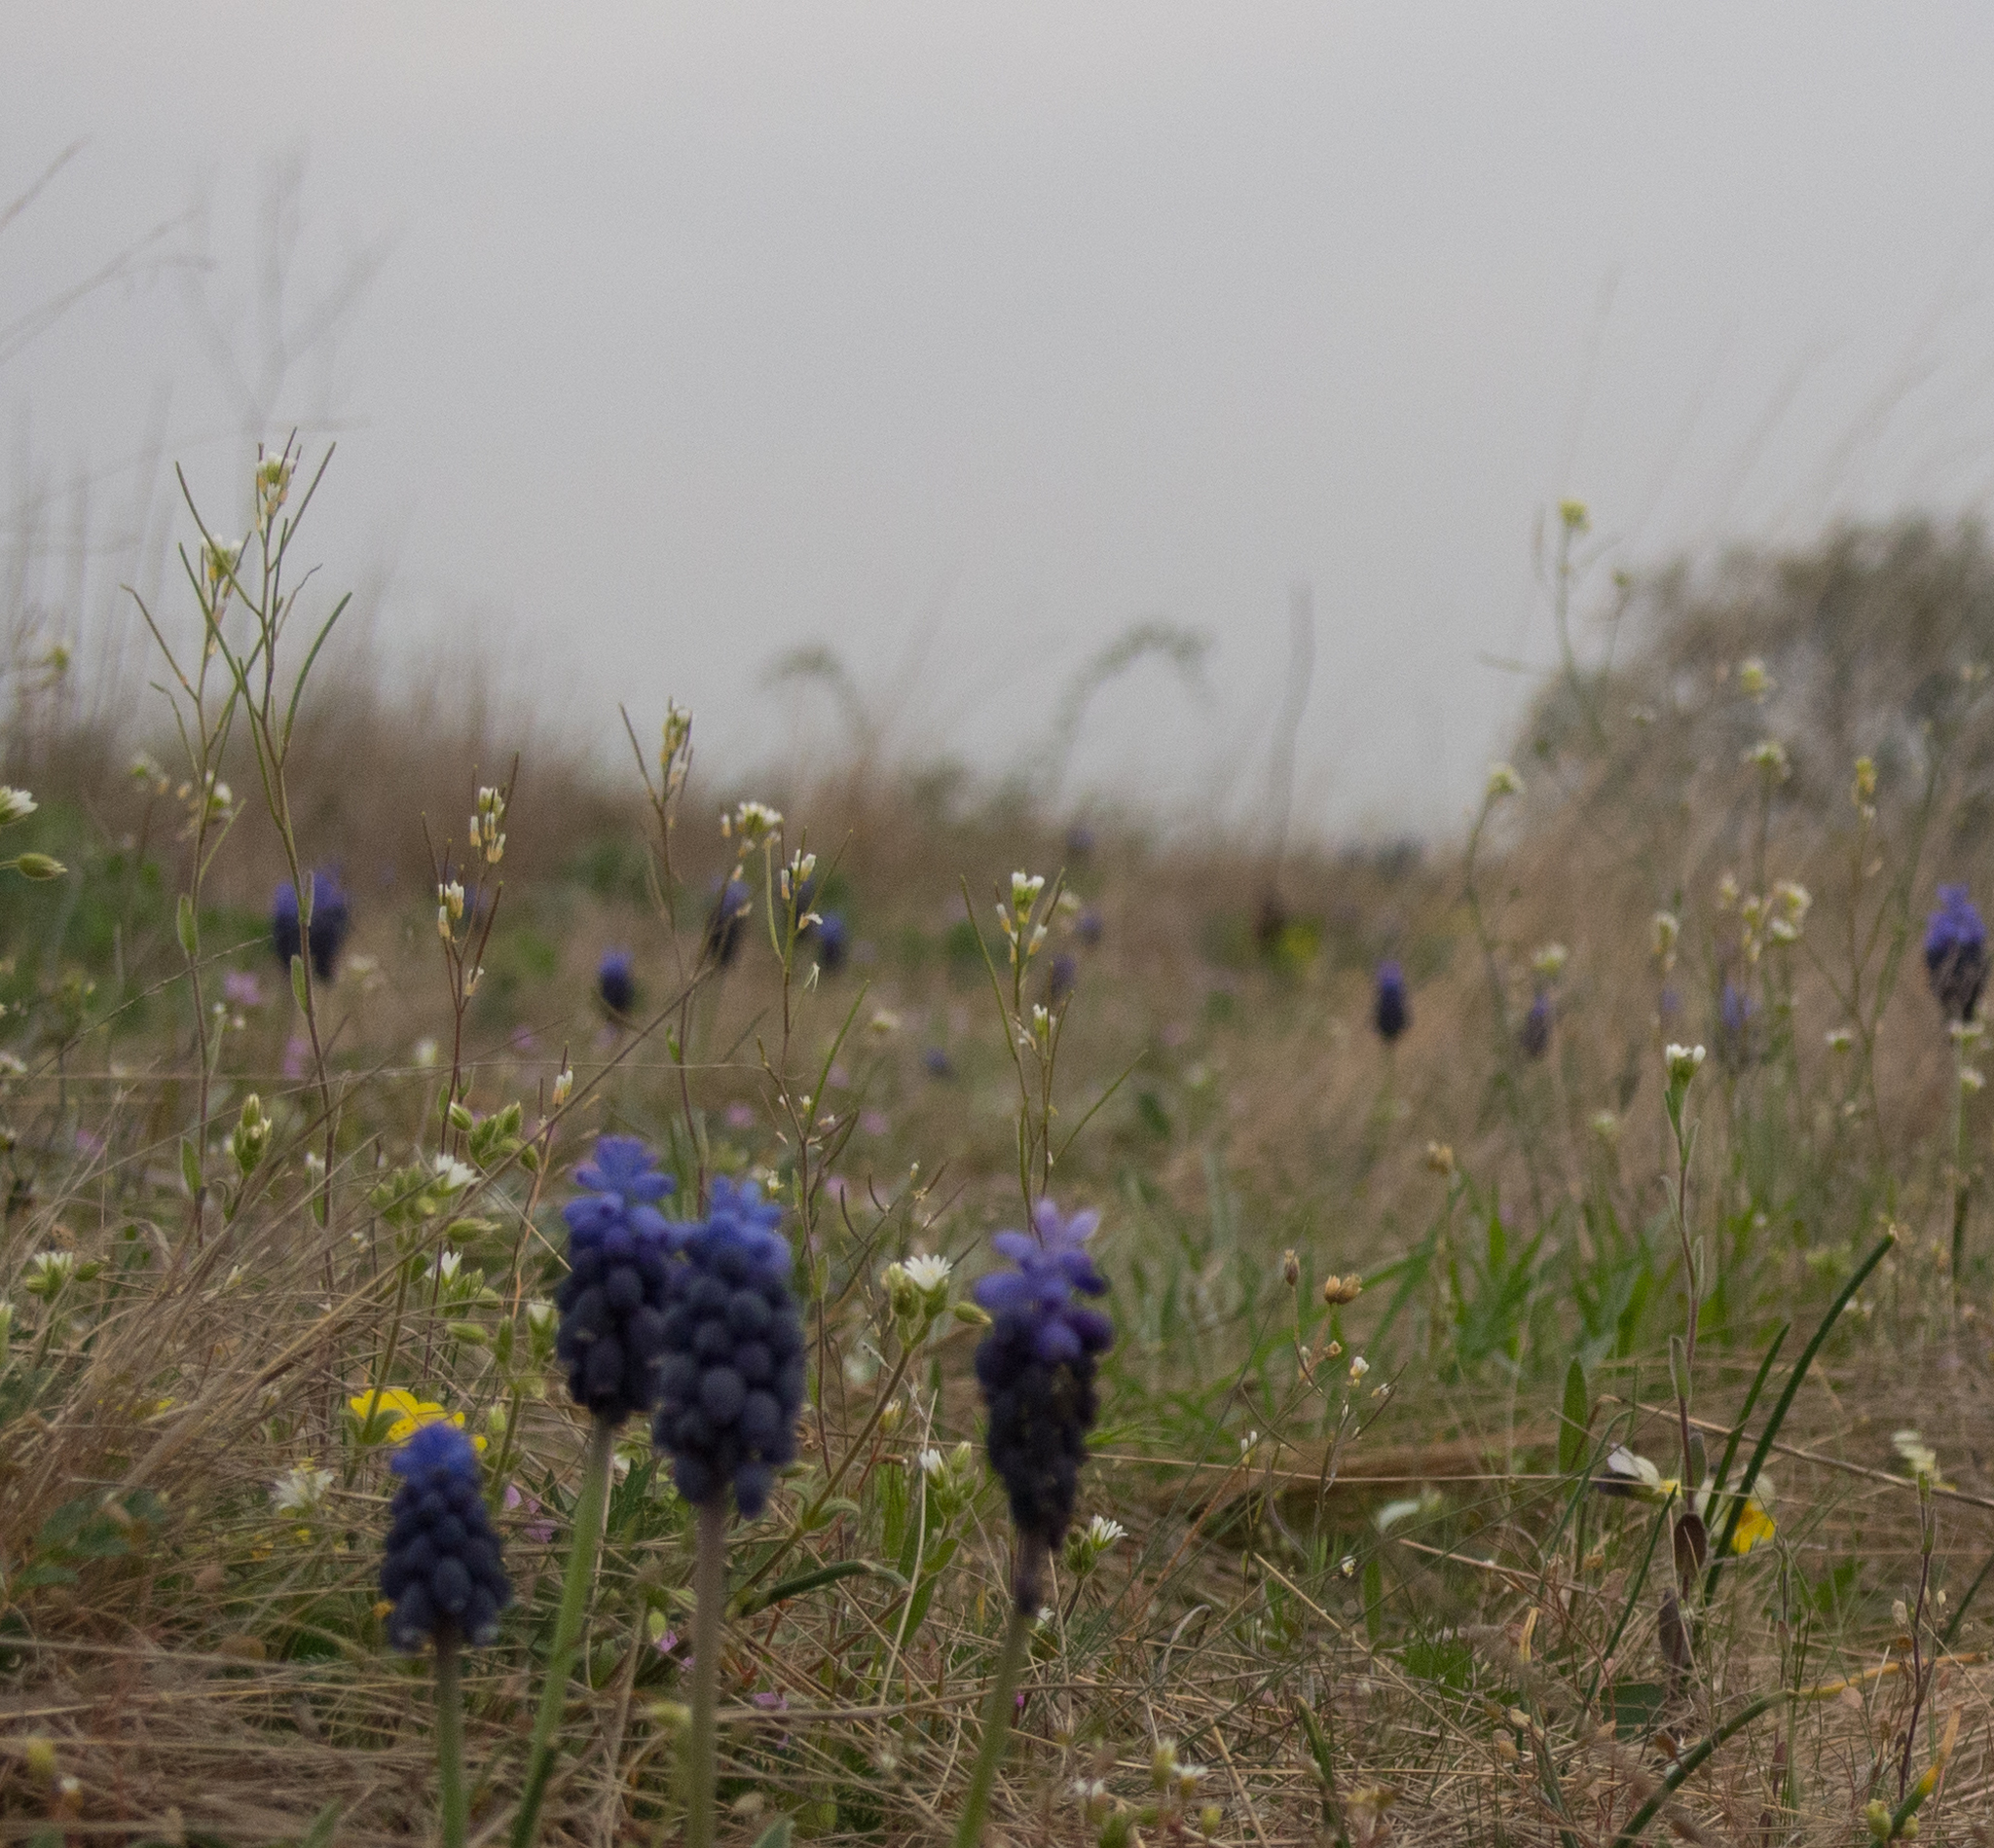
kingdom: Plantae
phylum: Tracheophyta
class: Magnoliopsida
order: Brassicales
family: Brassicaceae
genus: Arabis
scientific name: Arabis auriculata
